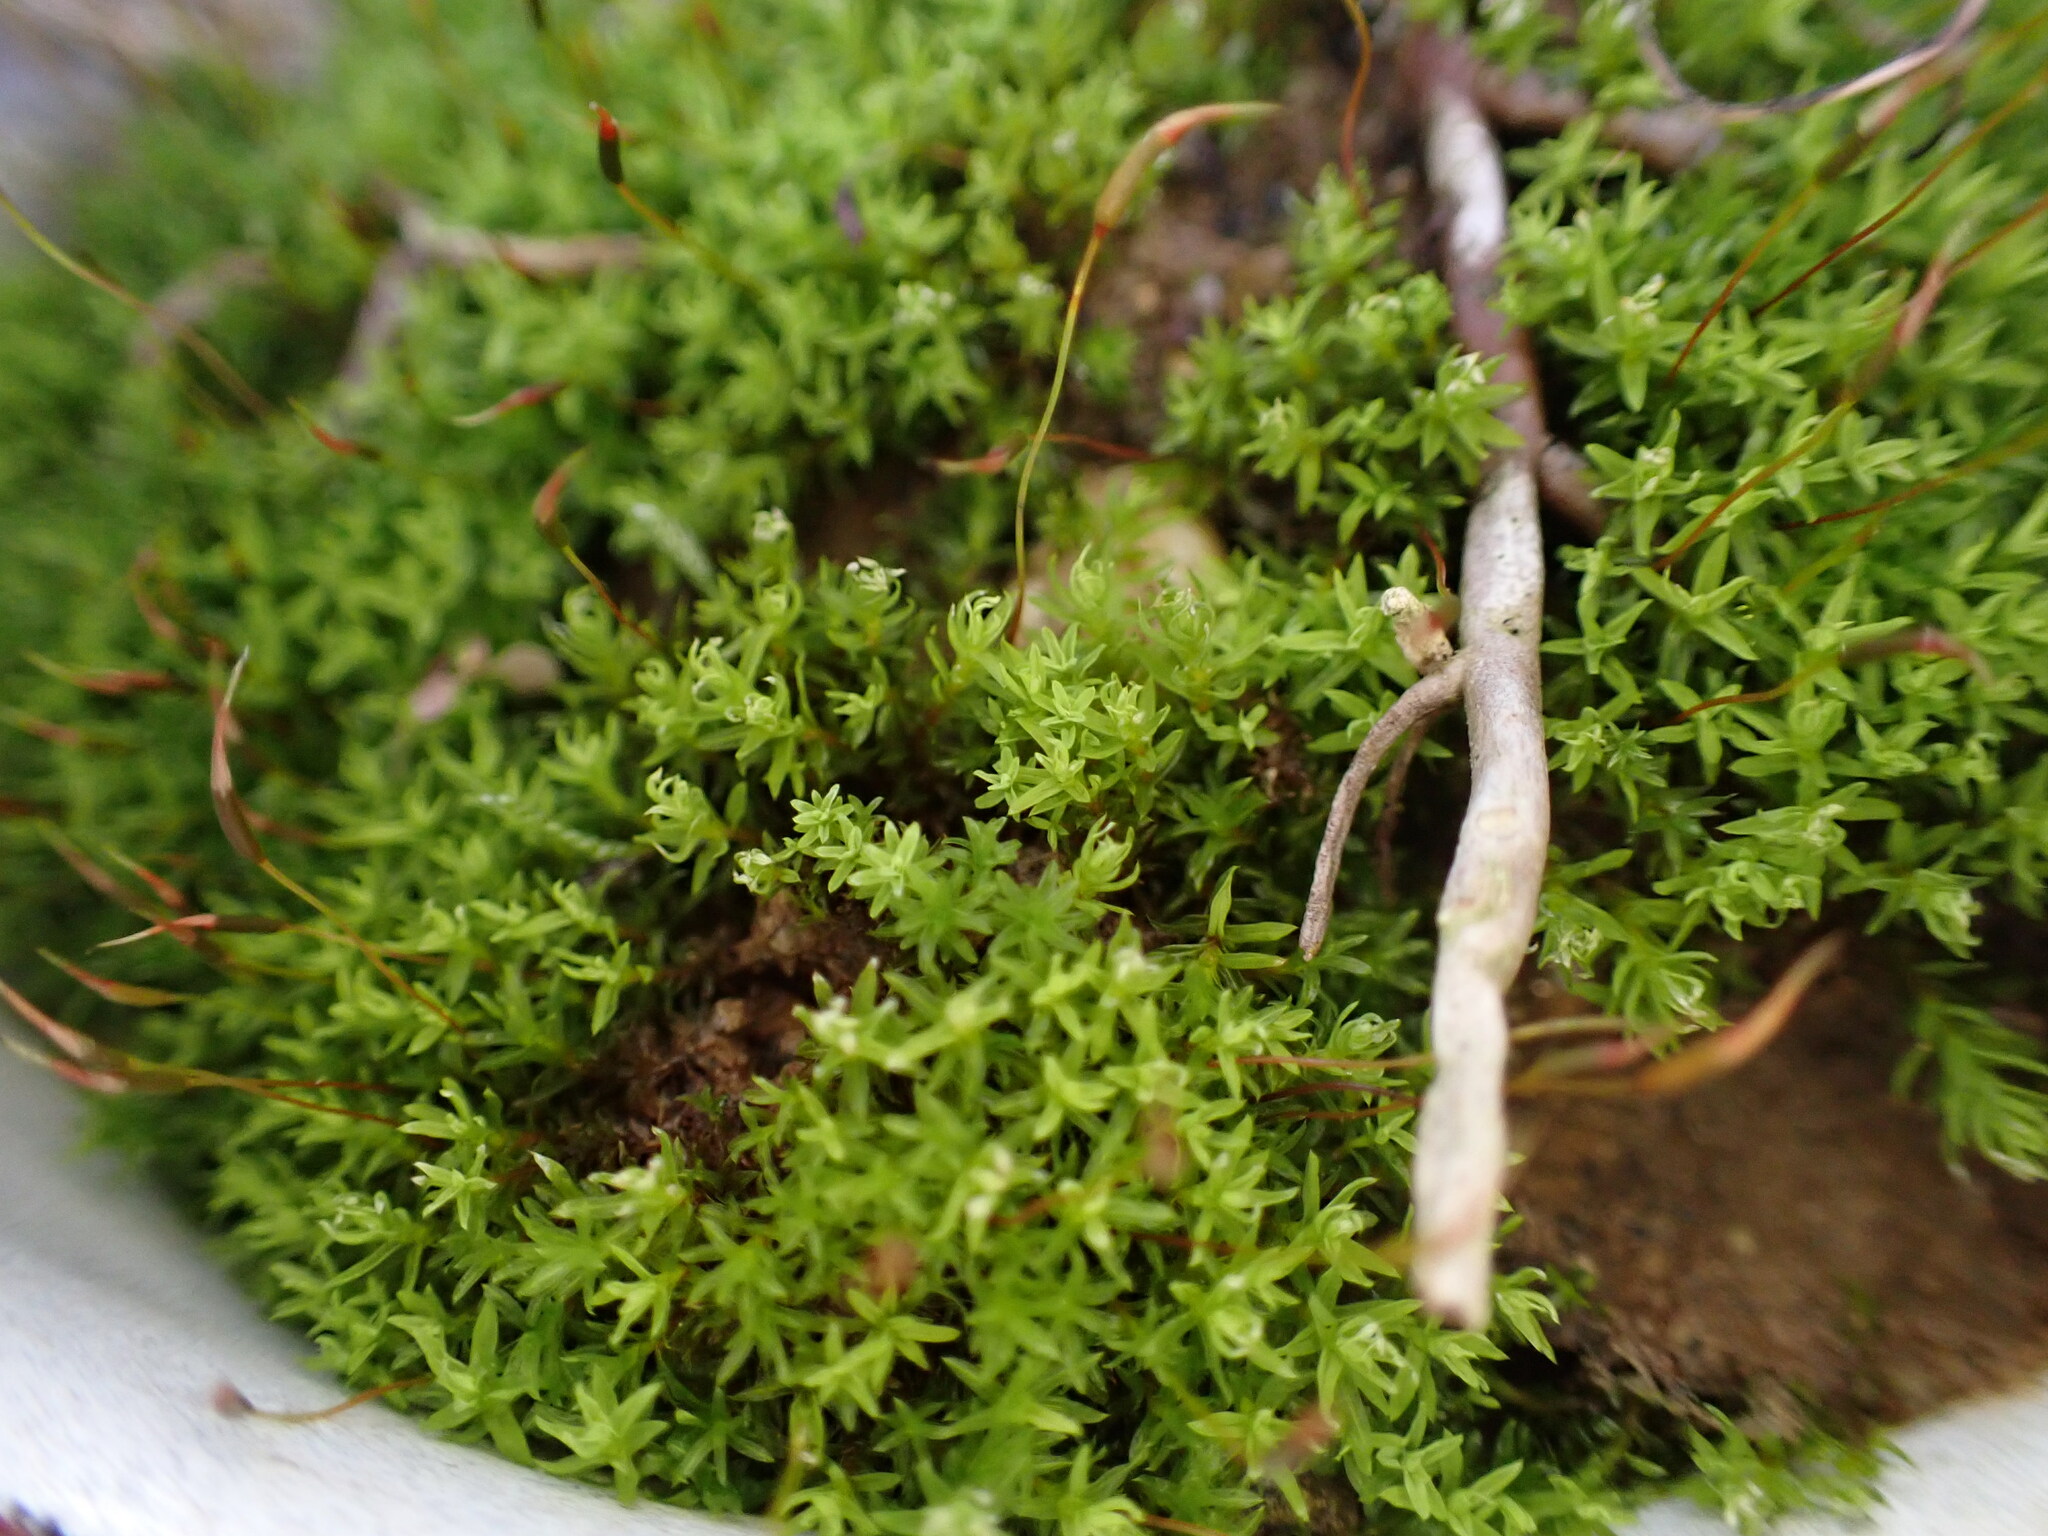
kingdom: Plantae
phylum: Bryophyta
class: Bryopsida
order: Pottiales
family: Pottiaceae
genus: Barbula
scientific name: Barbula unguiculata
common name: Prickly beard moss
